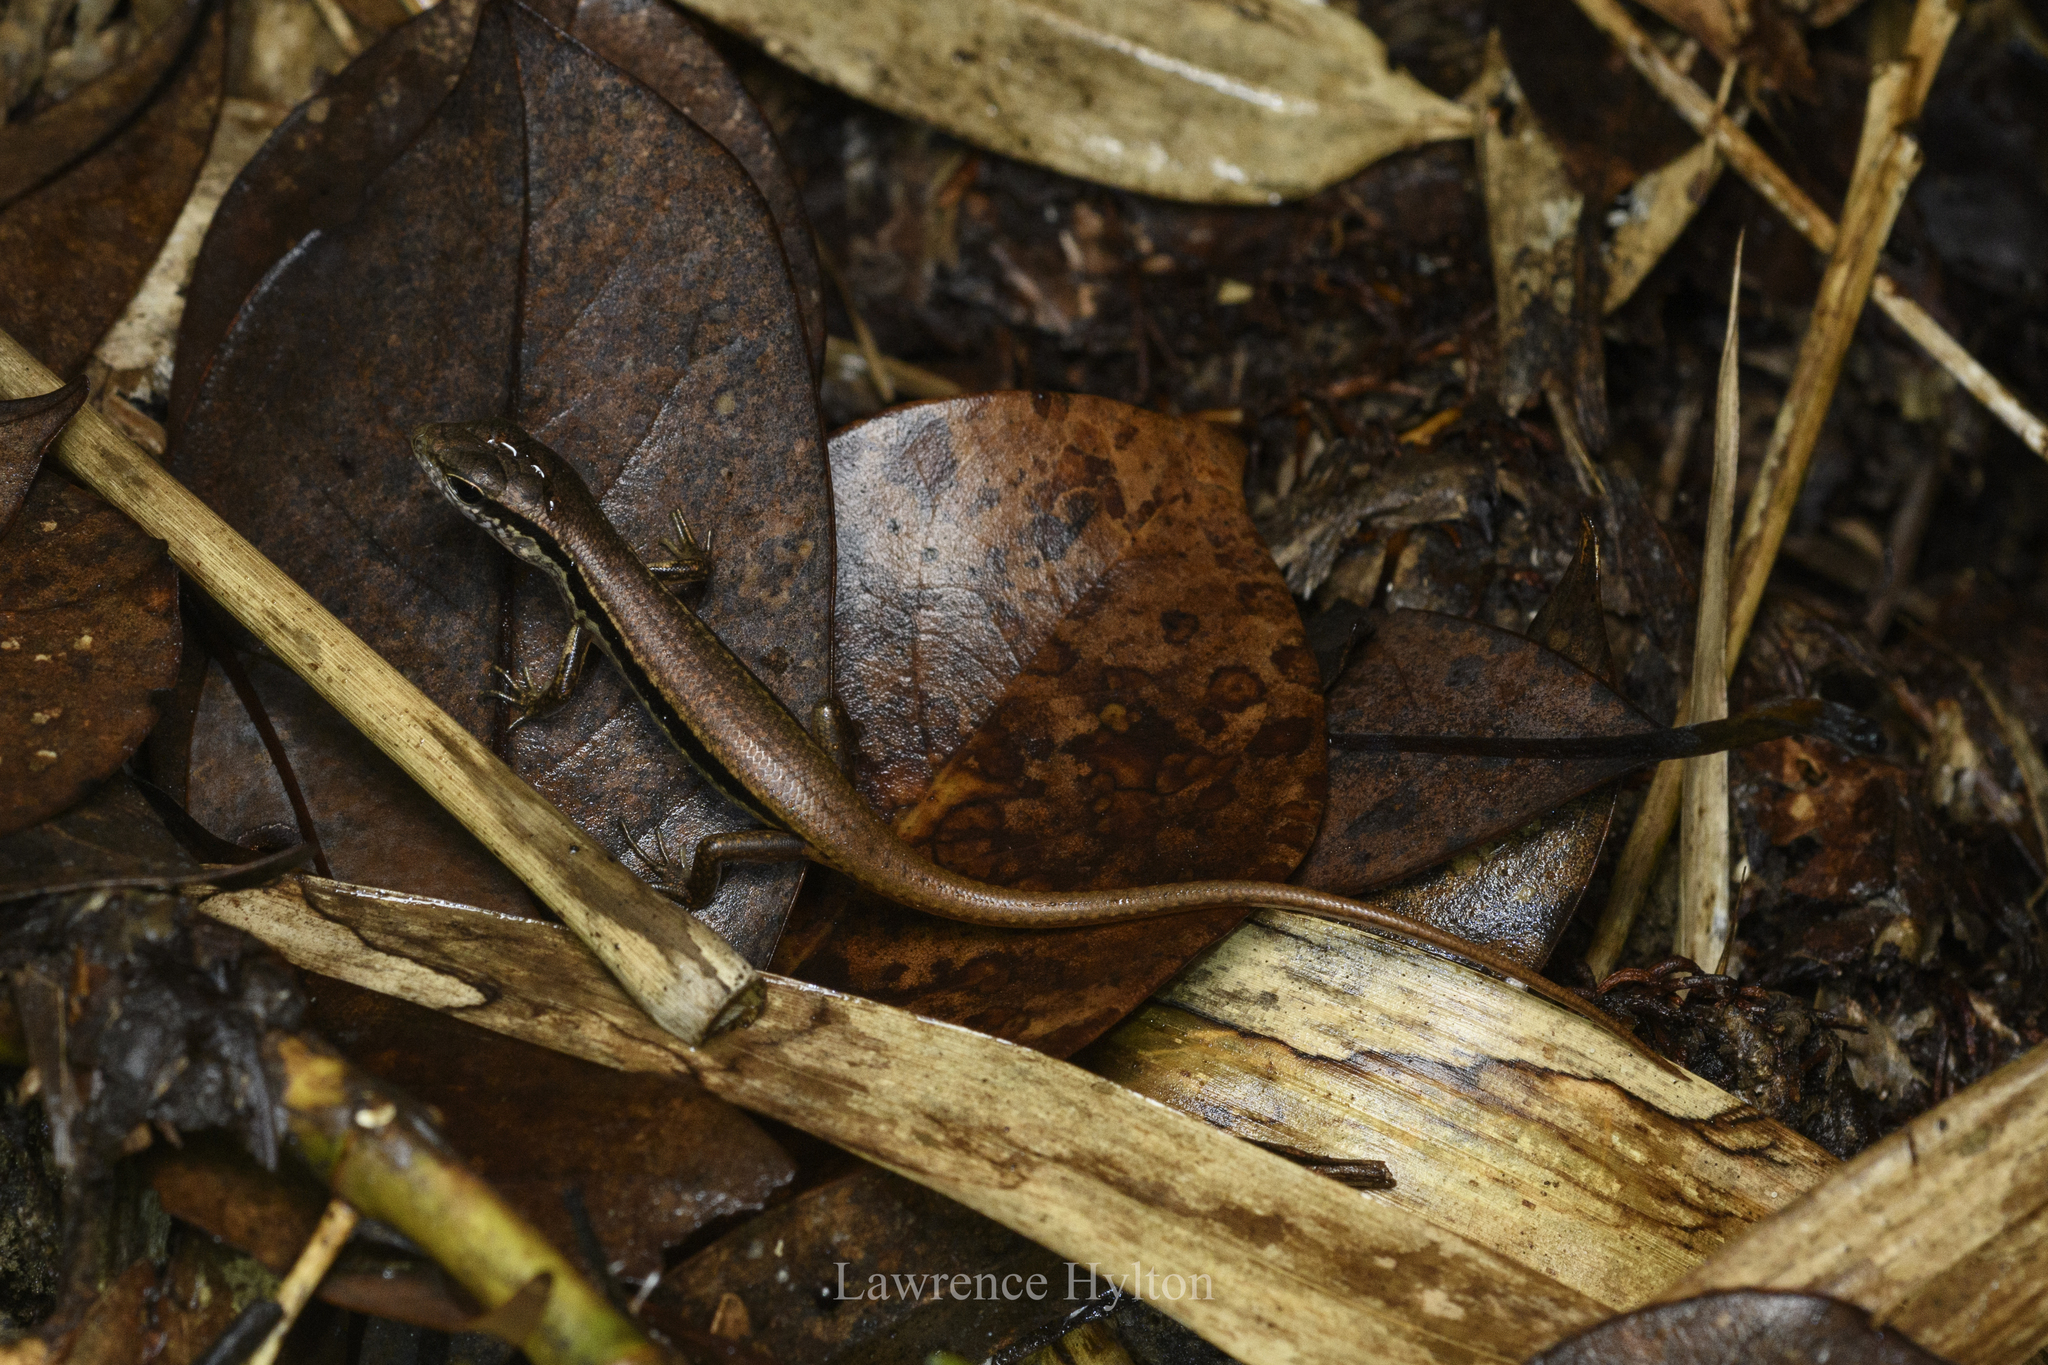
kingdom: Animalia
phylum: Chordata
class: Squamata
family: Scincidae
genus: Sphenomorphus
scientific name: Sphenomorphus indicus
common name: Himalayan forest skink
